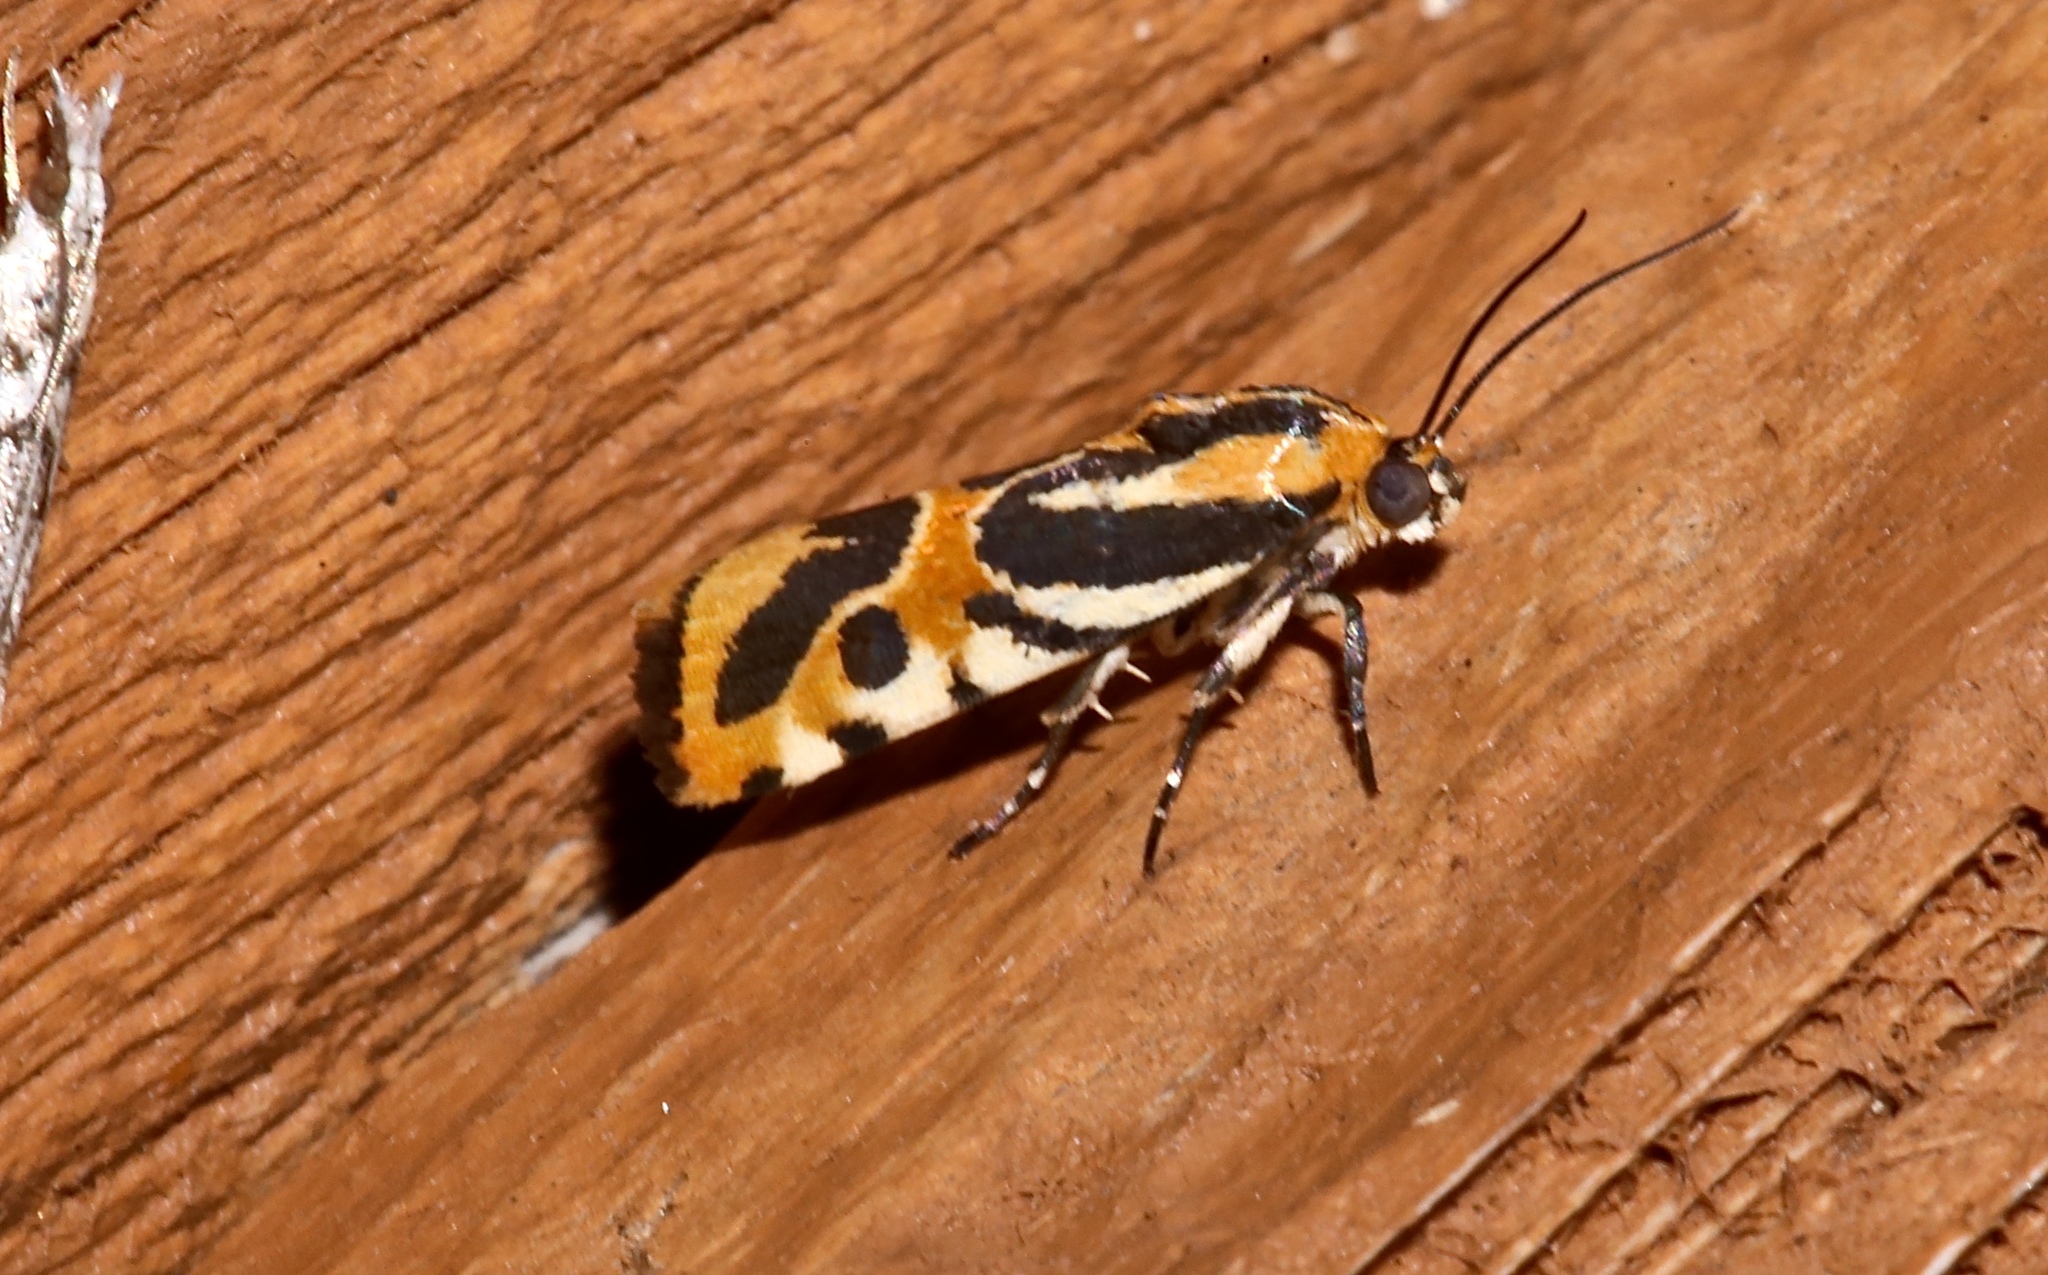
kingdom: Animalia
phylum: Arthropoda
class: Insecta
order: Lepidoptera
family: Noctuidae
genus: Acontia
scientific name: Acontia onagrus
